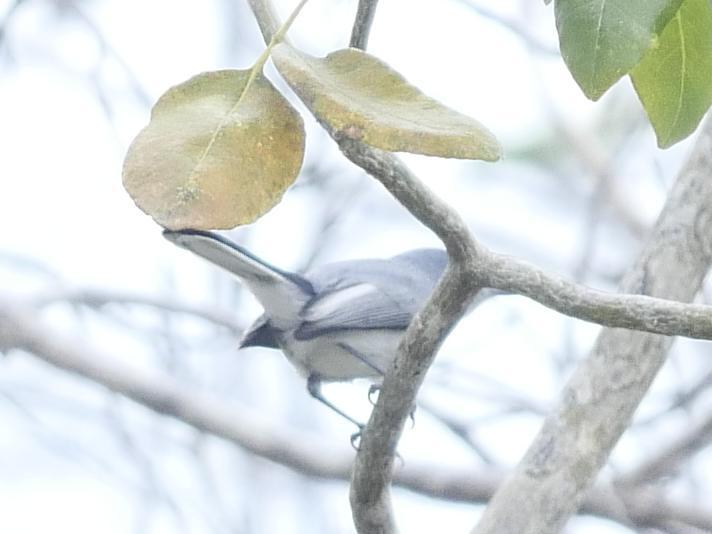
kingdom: Animalia
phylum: Chordata
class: Aves
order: Passeriformes
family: Polioptilidae
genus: Polioptila
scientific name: Polioptila caerulea
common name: Blue-gray gnatcatcher
